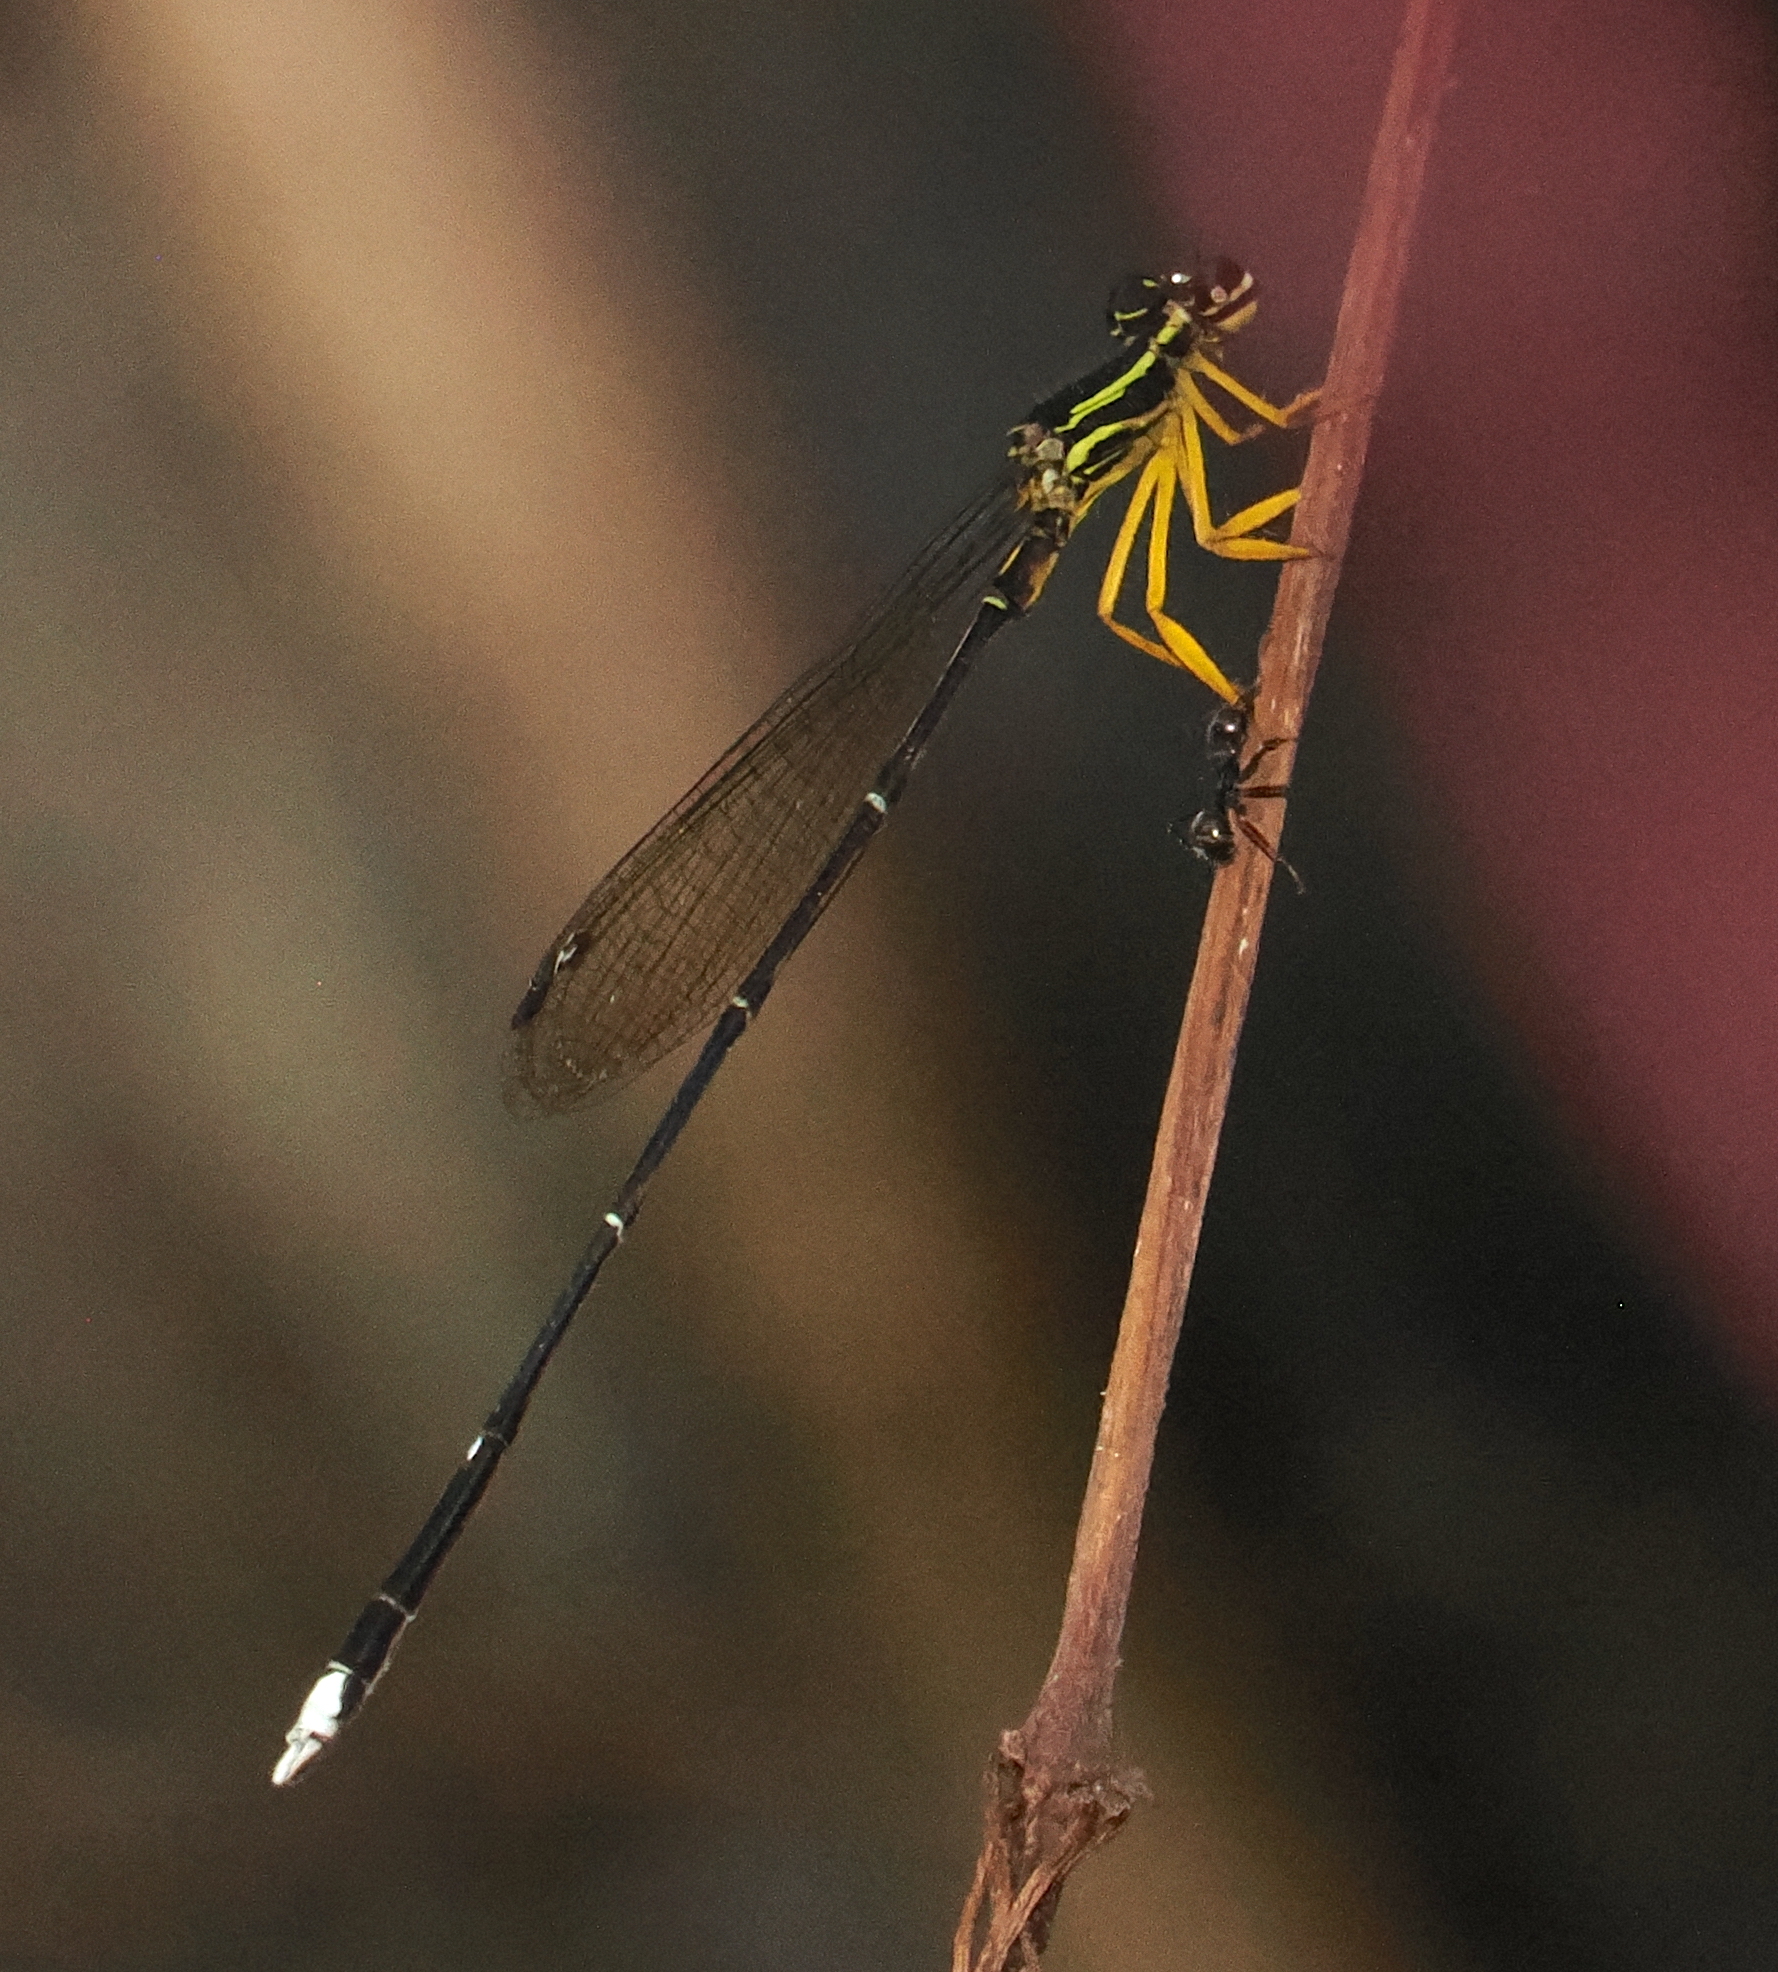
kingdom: Animalia
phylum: Arthropoda
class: Insecta
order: Odonata
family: Platycnemididae
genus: Copera
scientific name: Copera marginipes
